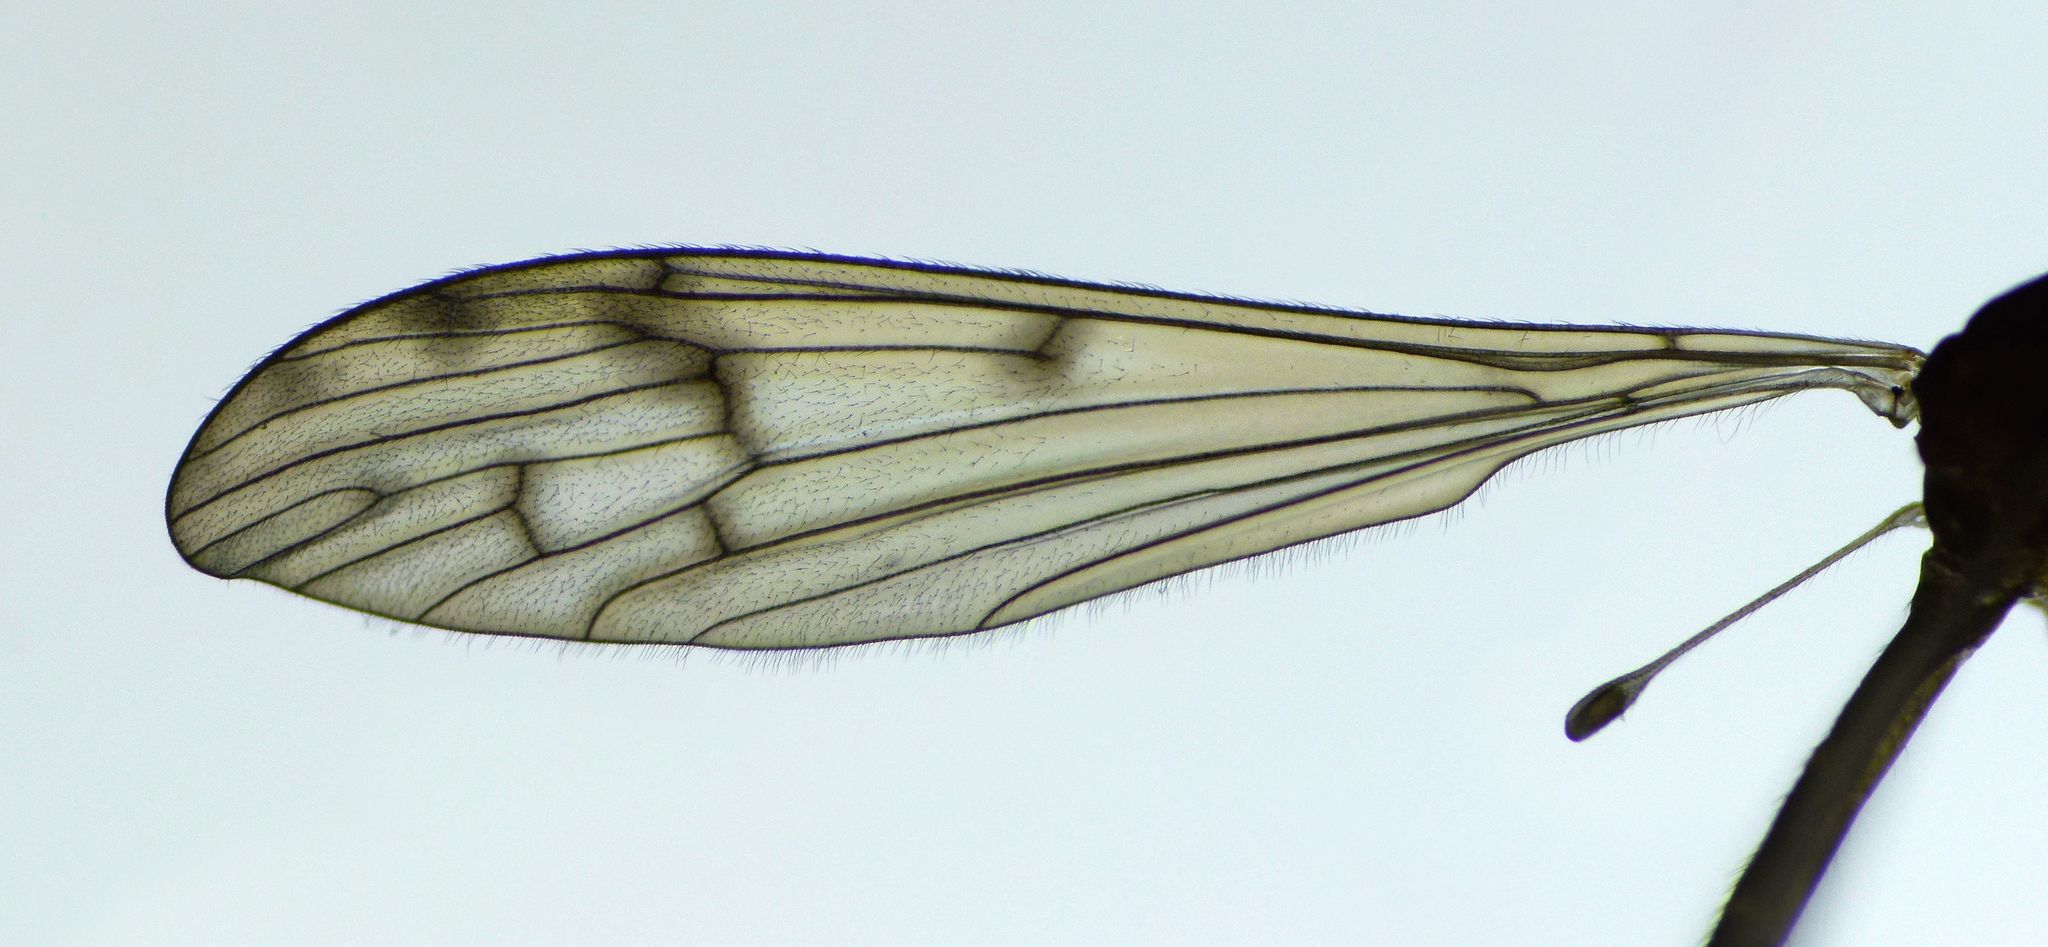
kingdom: Animalia
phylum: Arthropoda
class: Insecta
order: Diptera
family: Limoniidae
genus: Nothophila
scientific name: Nothophila fuscana
